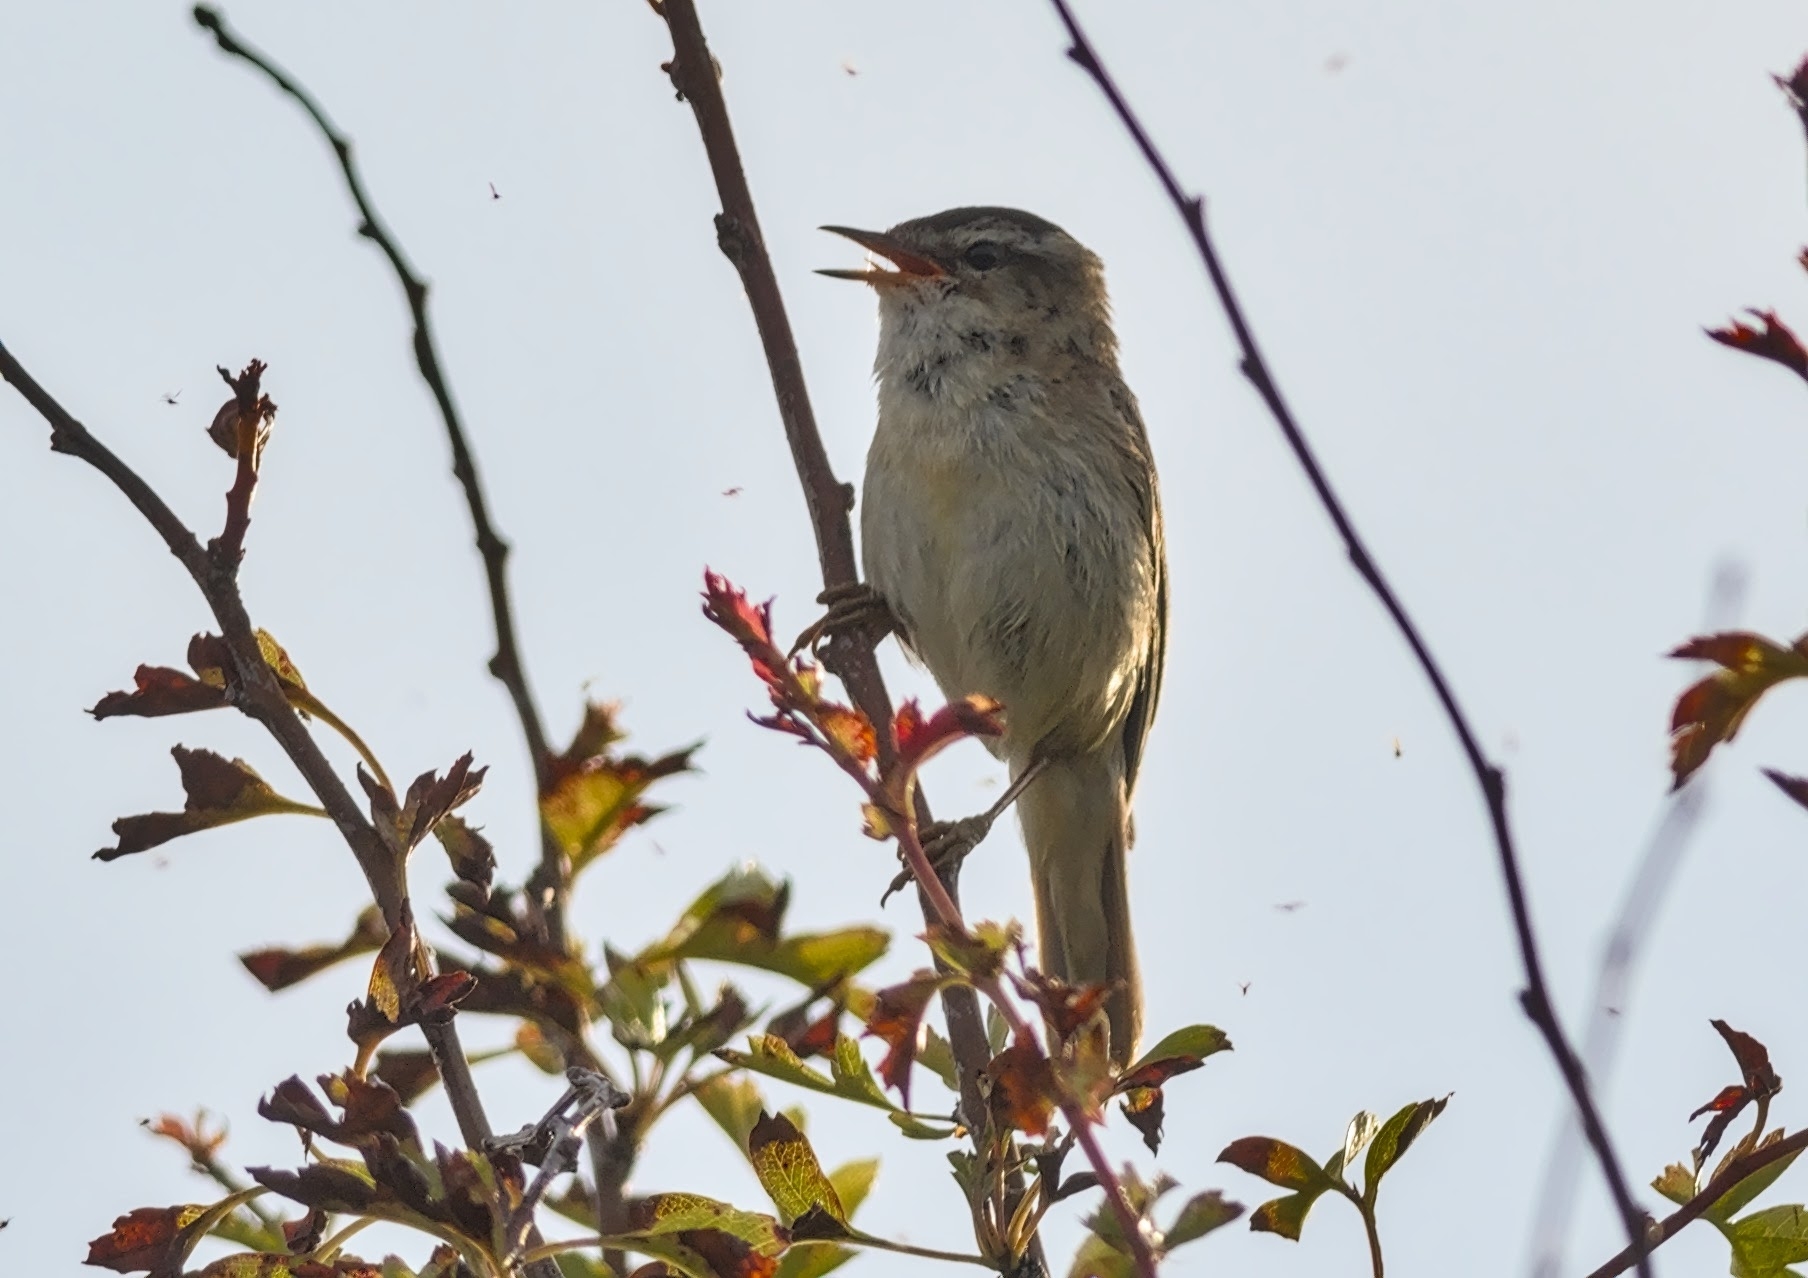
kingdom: Animalia
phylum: Chordata
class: Aves
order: Passeriformes
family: Acrocephalidae
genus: Acrocephalus
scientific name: Acrocephalus schoenobaenus
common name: Sedge warbler
